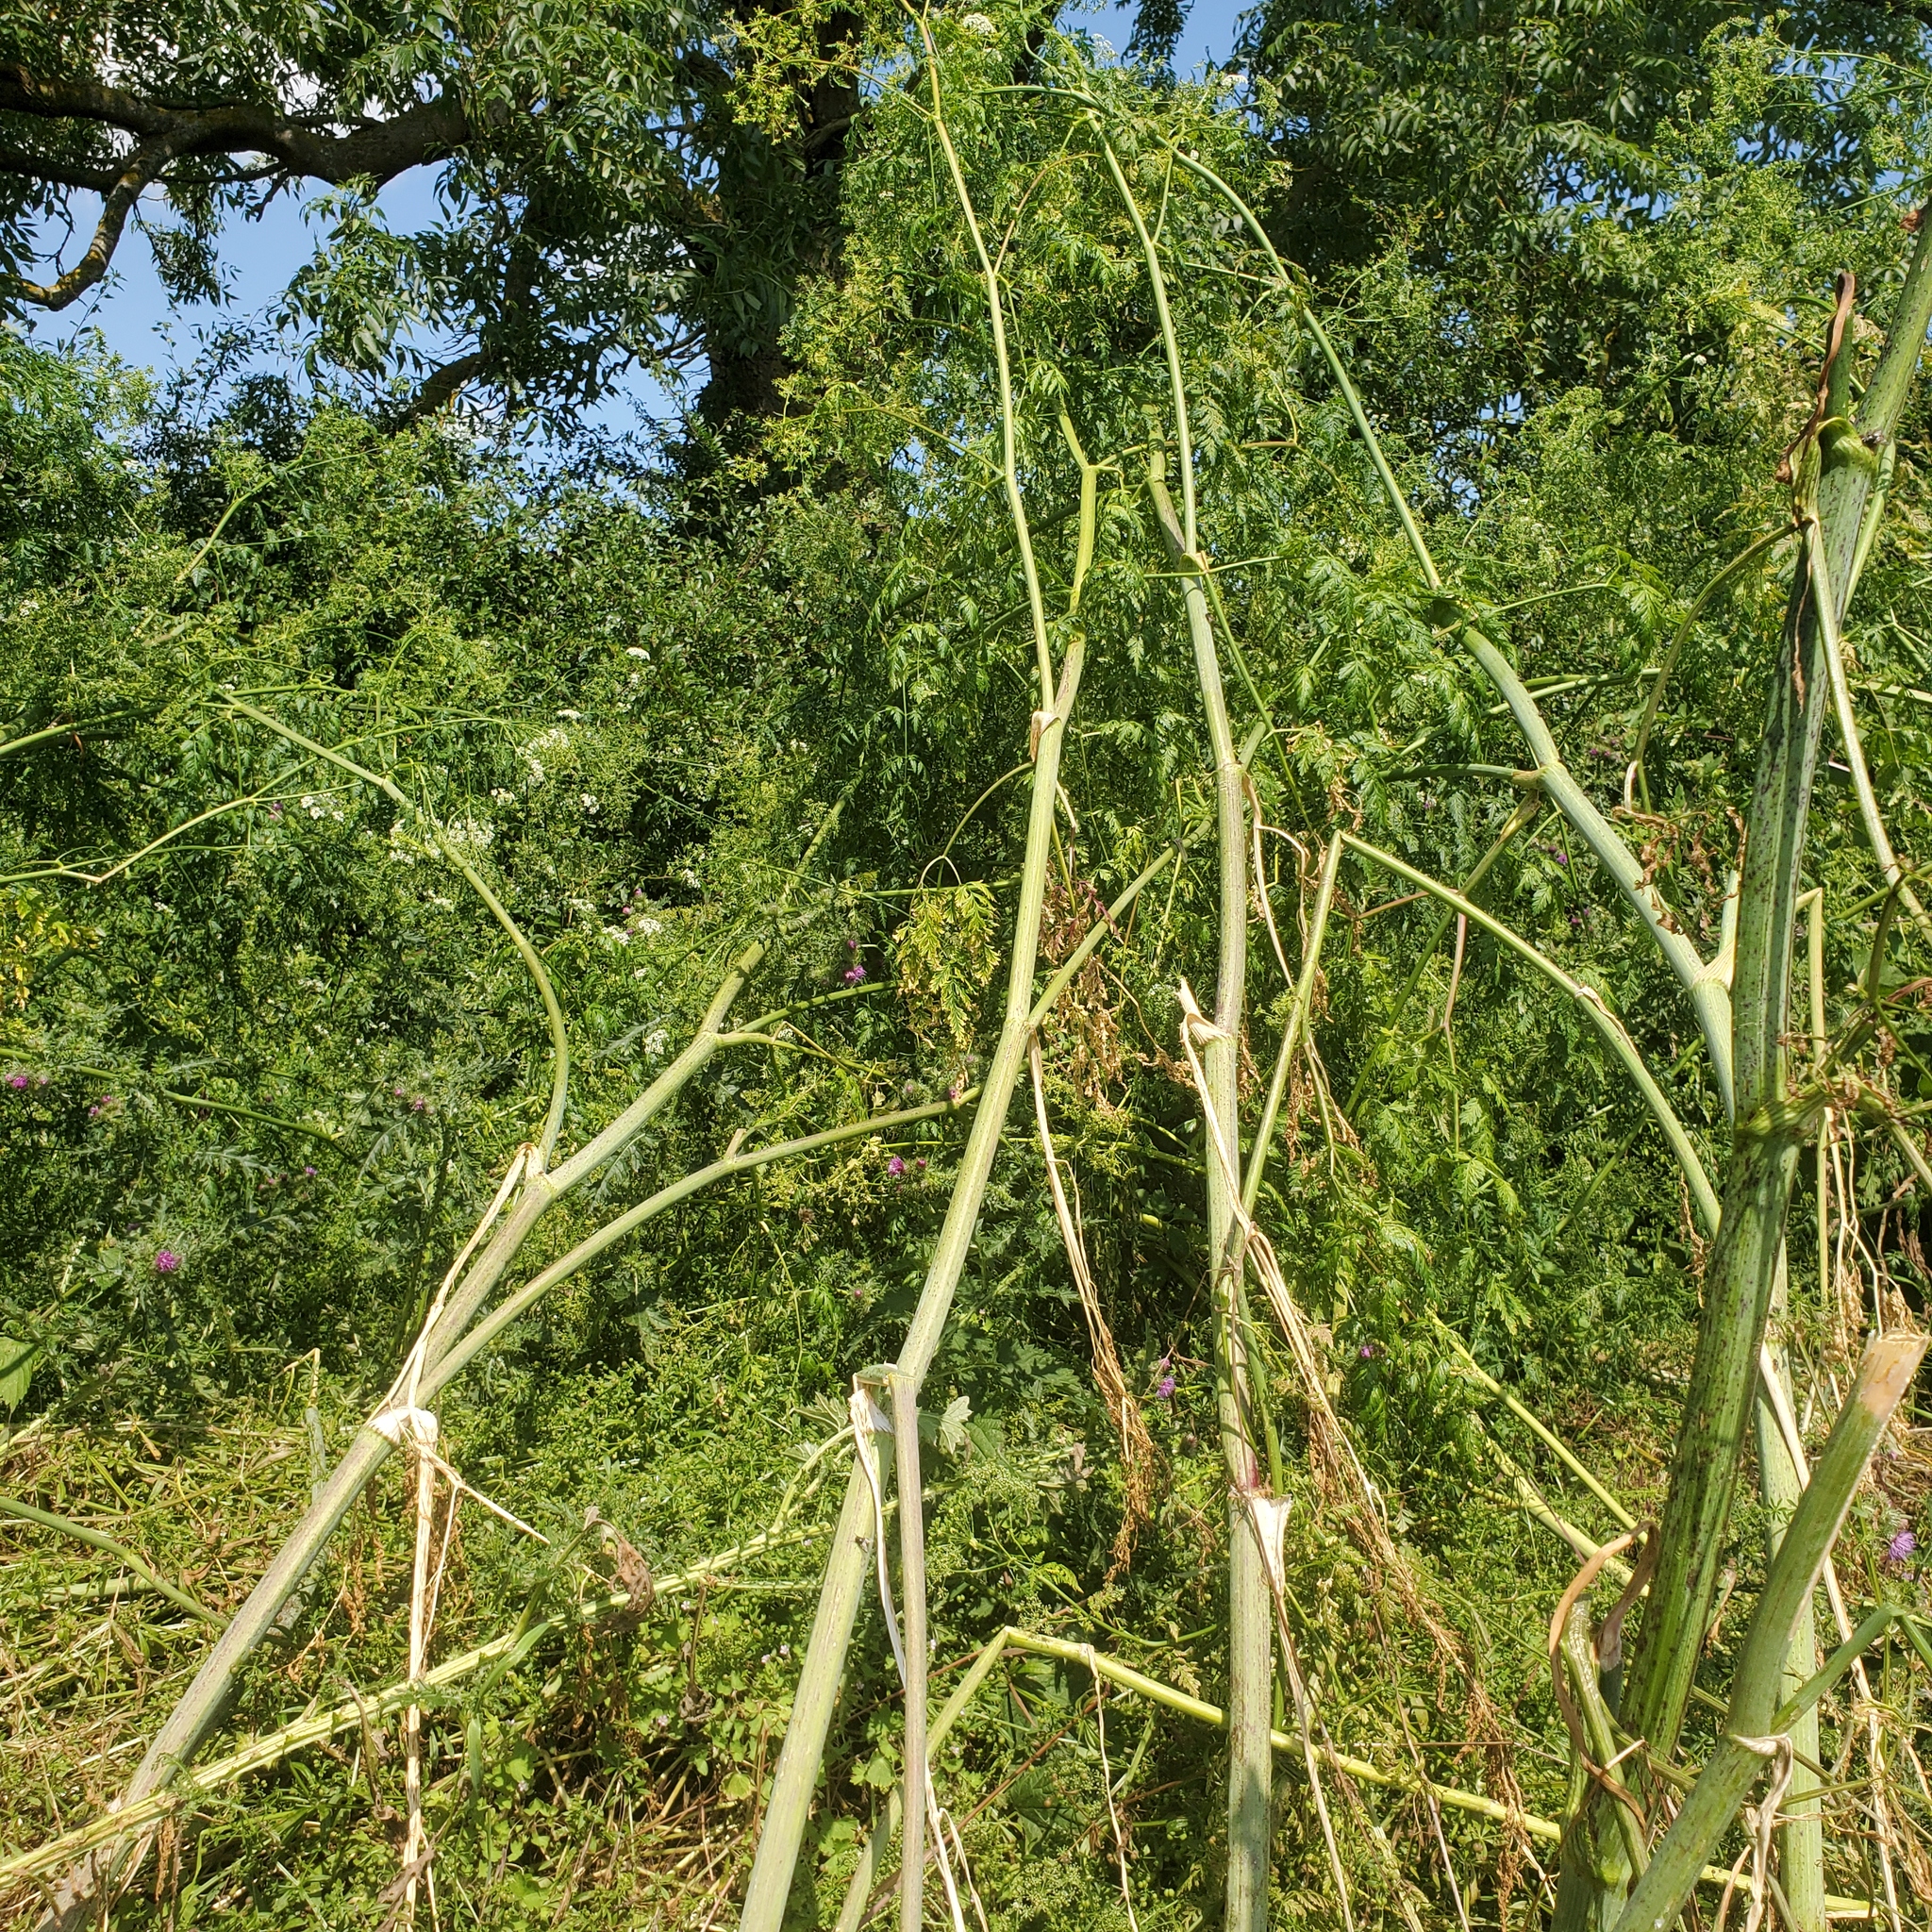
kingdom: Plantae
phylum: Tracheophyta
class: Magnoliopsida
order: Apiales
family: Apiaceae
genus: Conium
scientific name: Conium maculatum
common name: Hemlock
